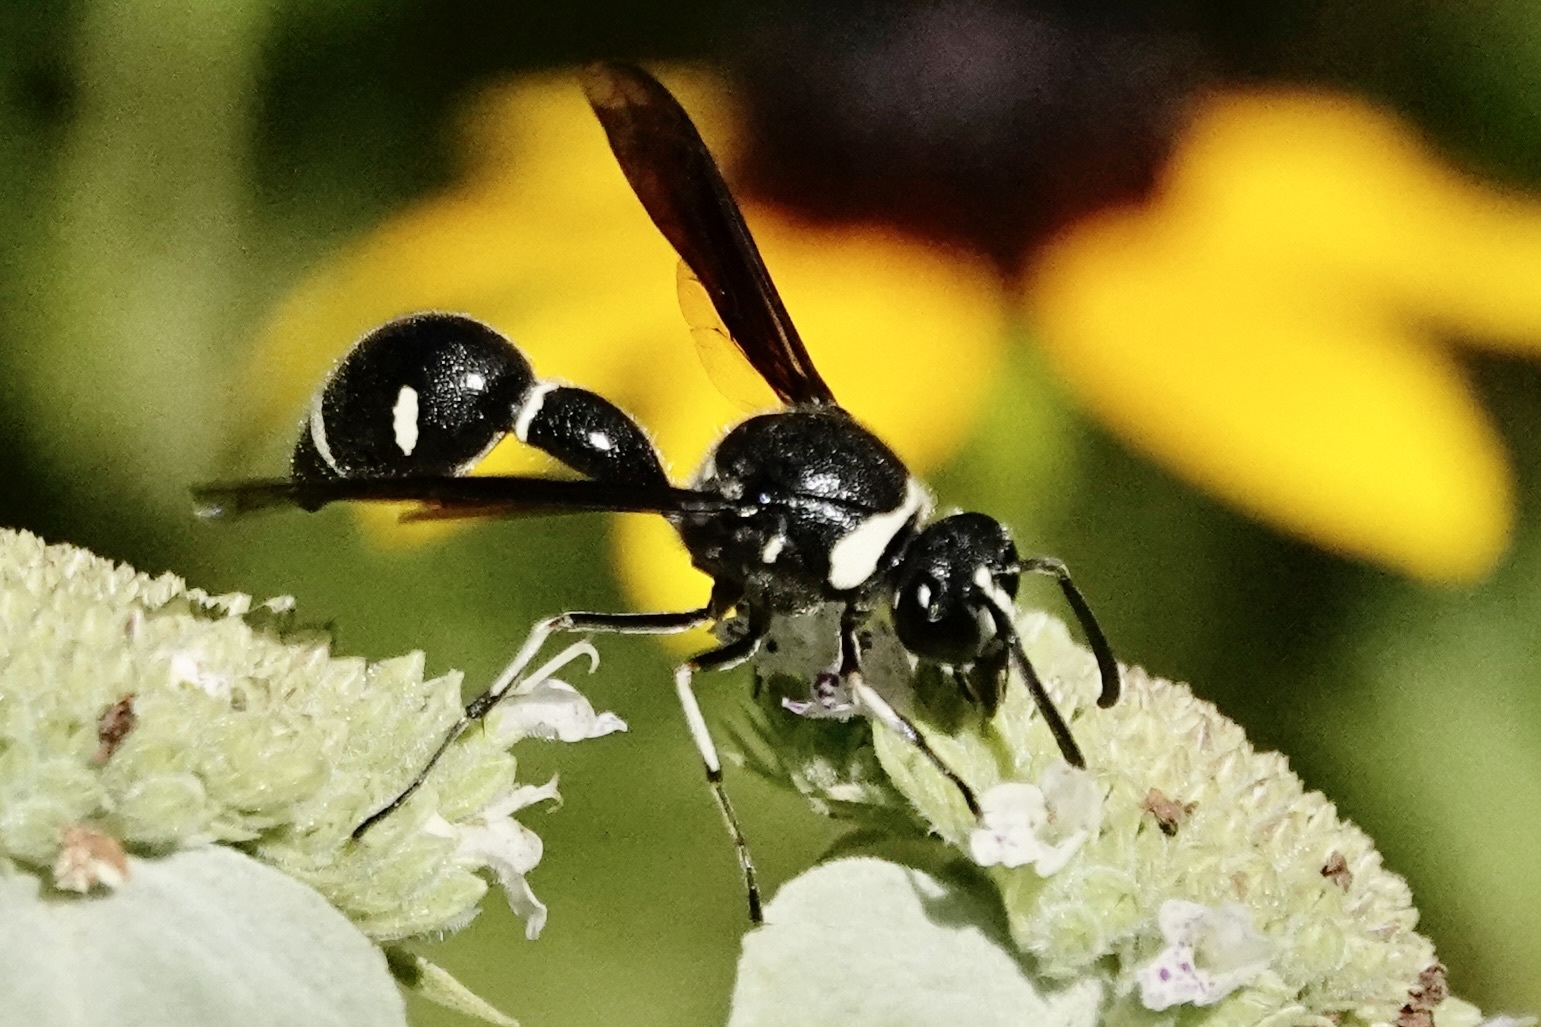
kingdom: Animalia
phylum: Arthropoda
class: Insecta
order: Hymenoptera
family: Vespidae
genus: Eumenes
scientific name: Eumenes fraternus
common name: Fraternal potter wasp
